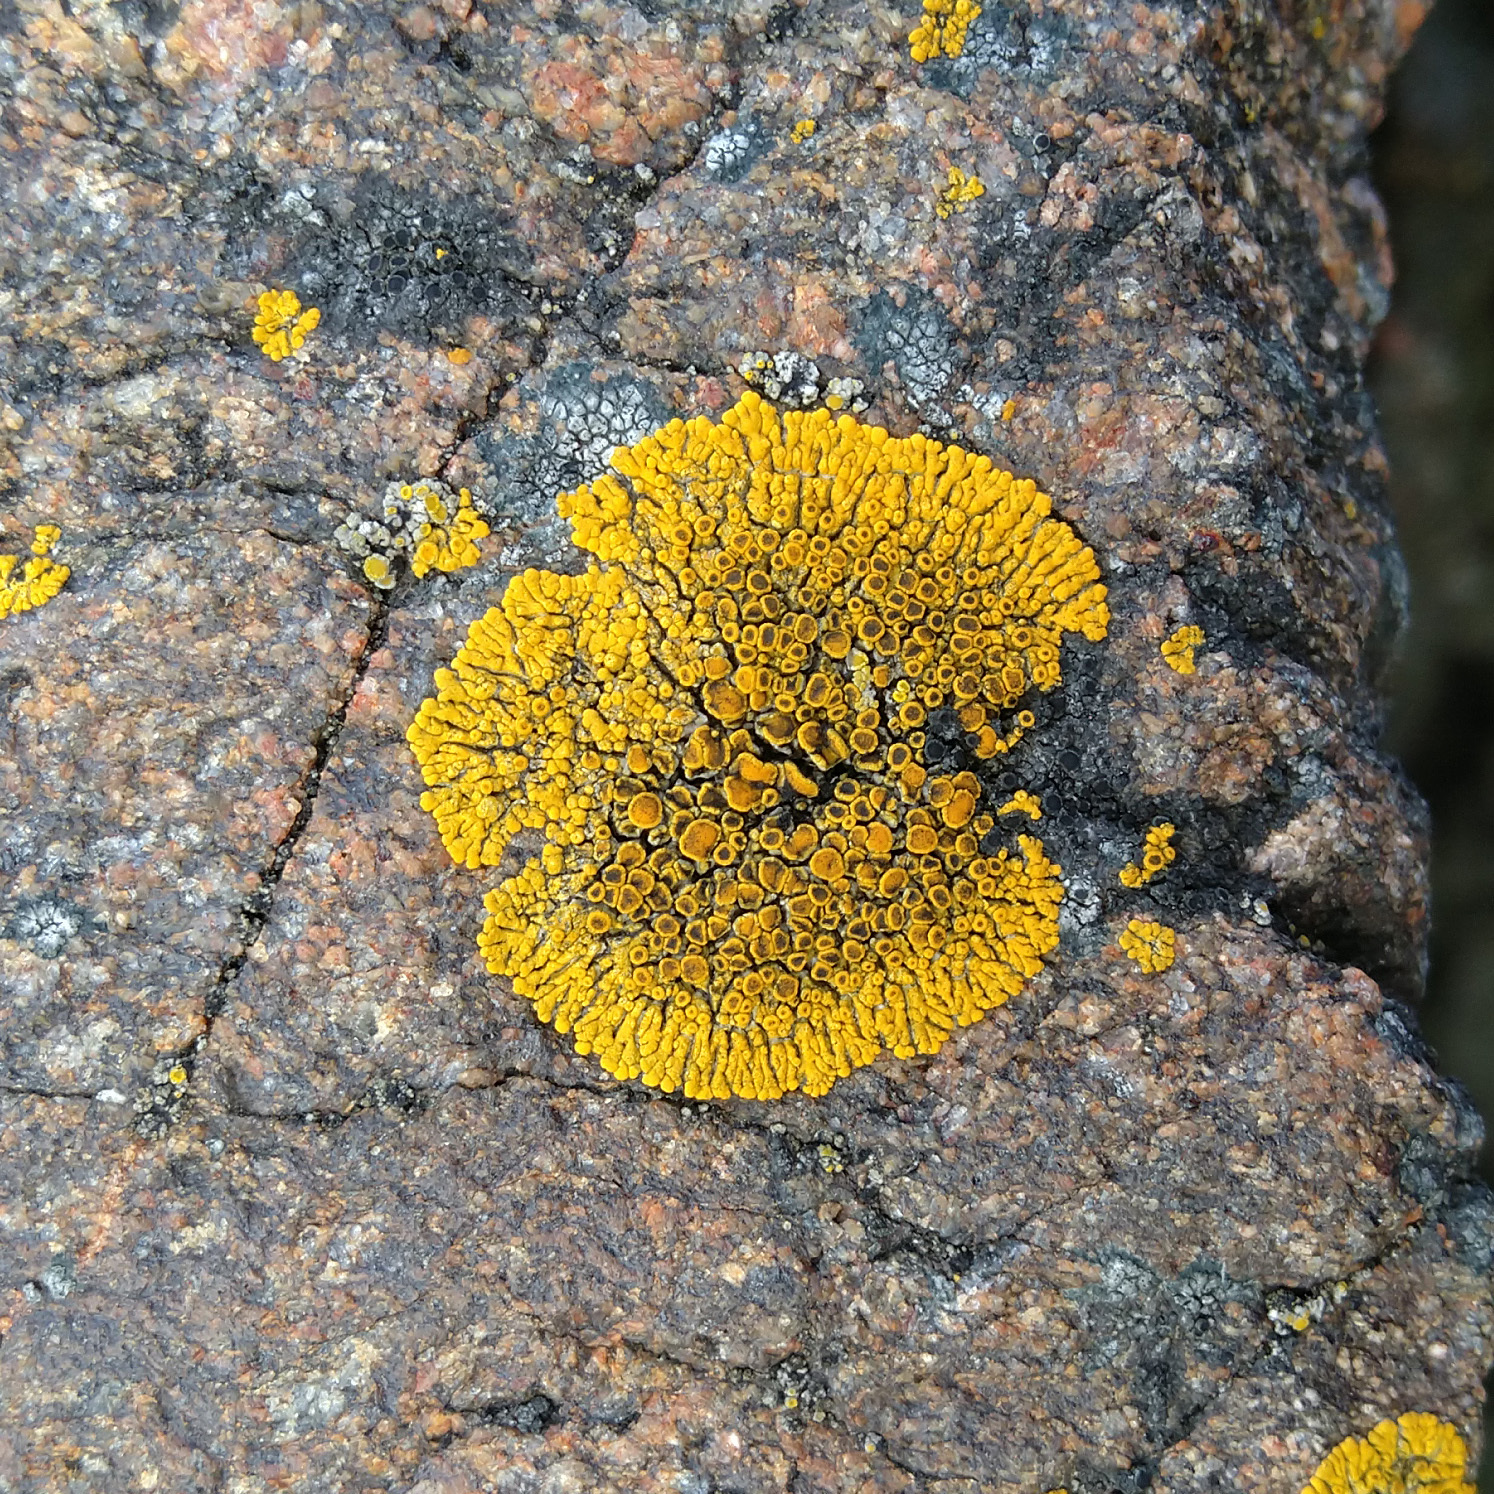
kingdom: Fungi
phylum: Ascomycota
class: Lecanoromycetes
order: Teloschistales
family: Teloschistaceae
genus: Athallia
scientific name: Athallia scopularis
